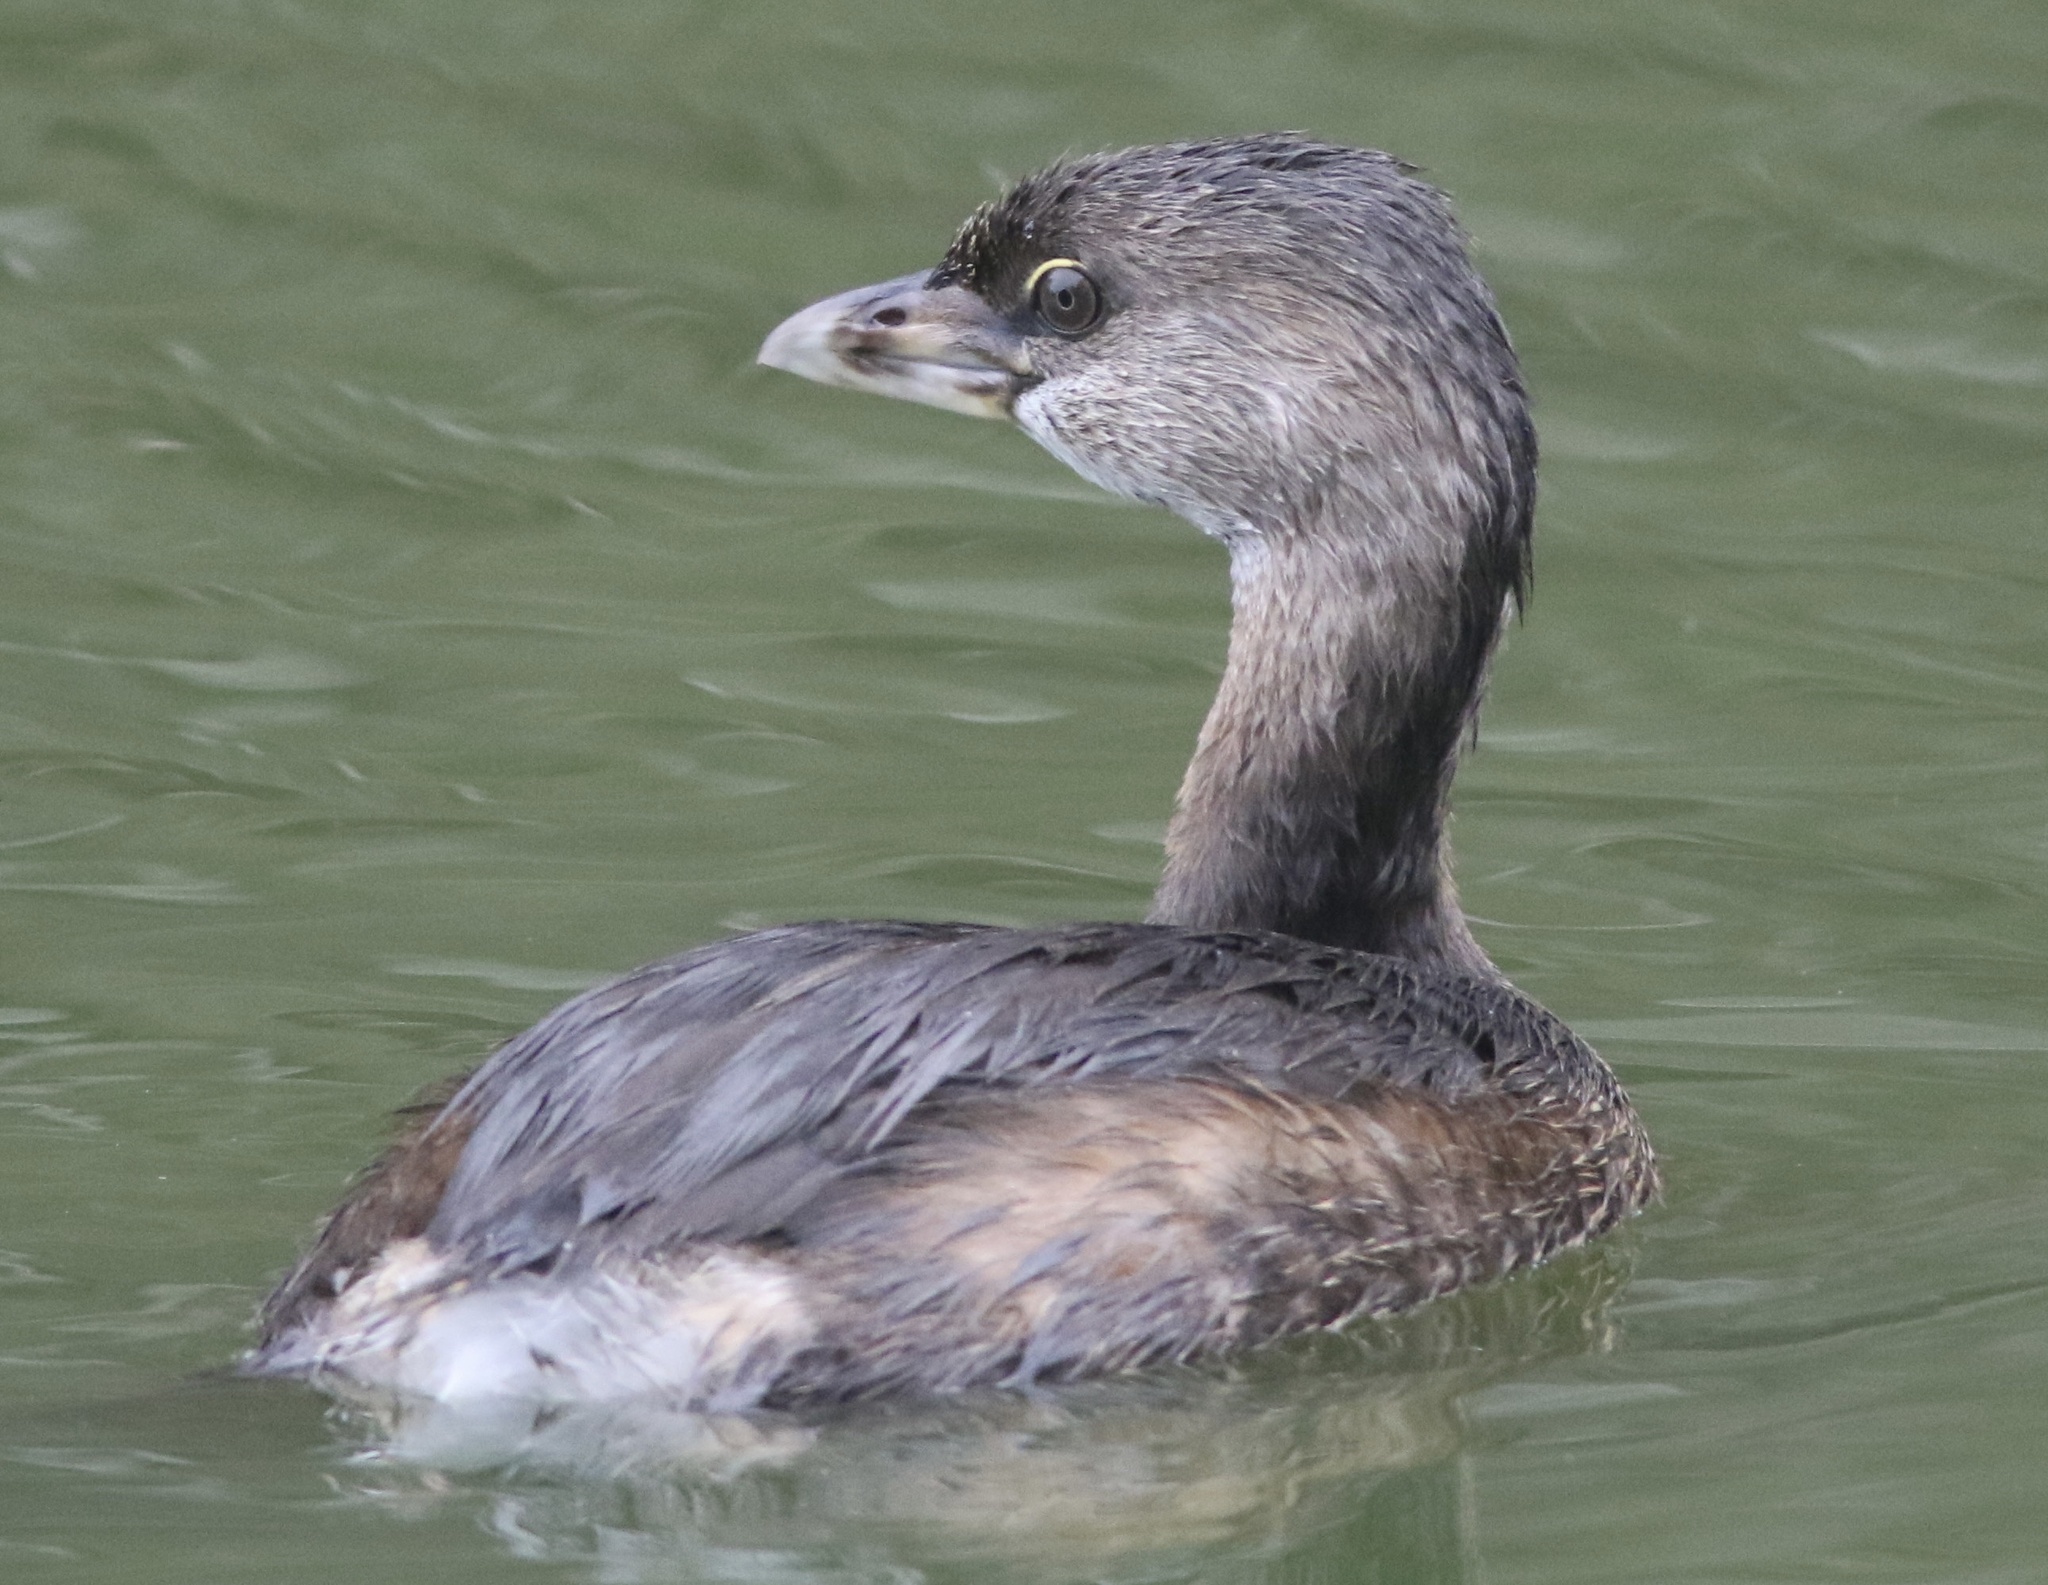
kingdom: Animalia
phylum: Chordata
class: Aves
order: Podicipediformes
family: Podicipedidae
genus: Podilymbus
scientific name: Podilymbus podiceps
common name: Pied-billed grebe
